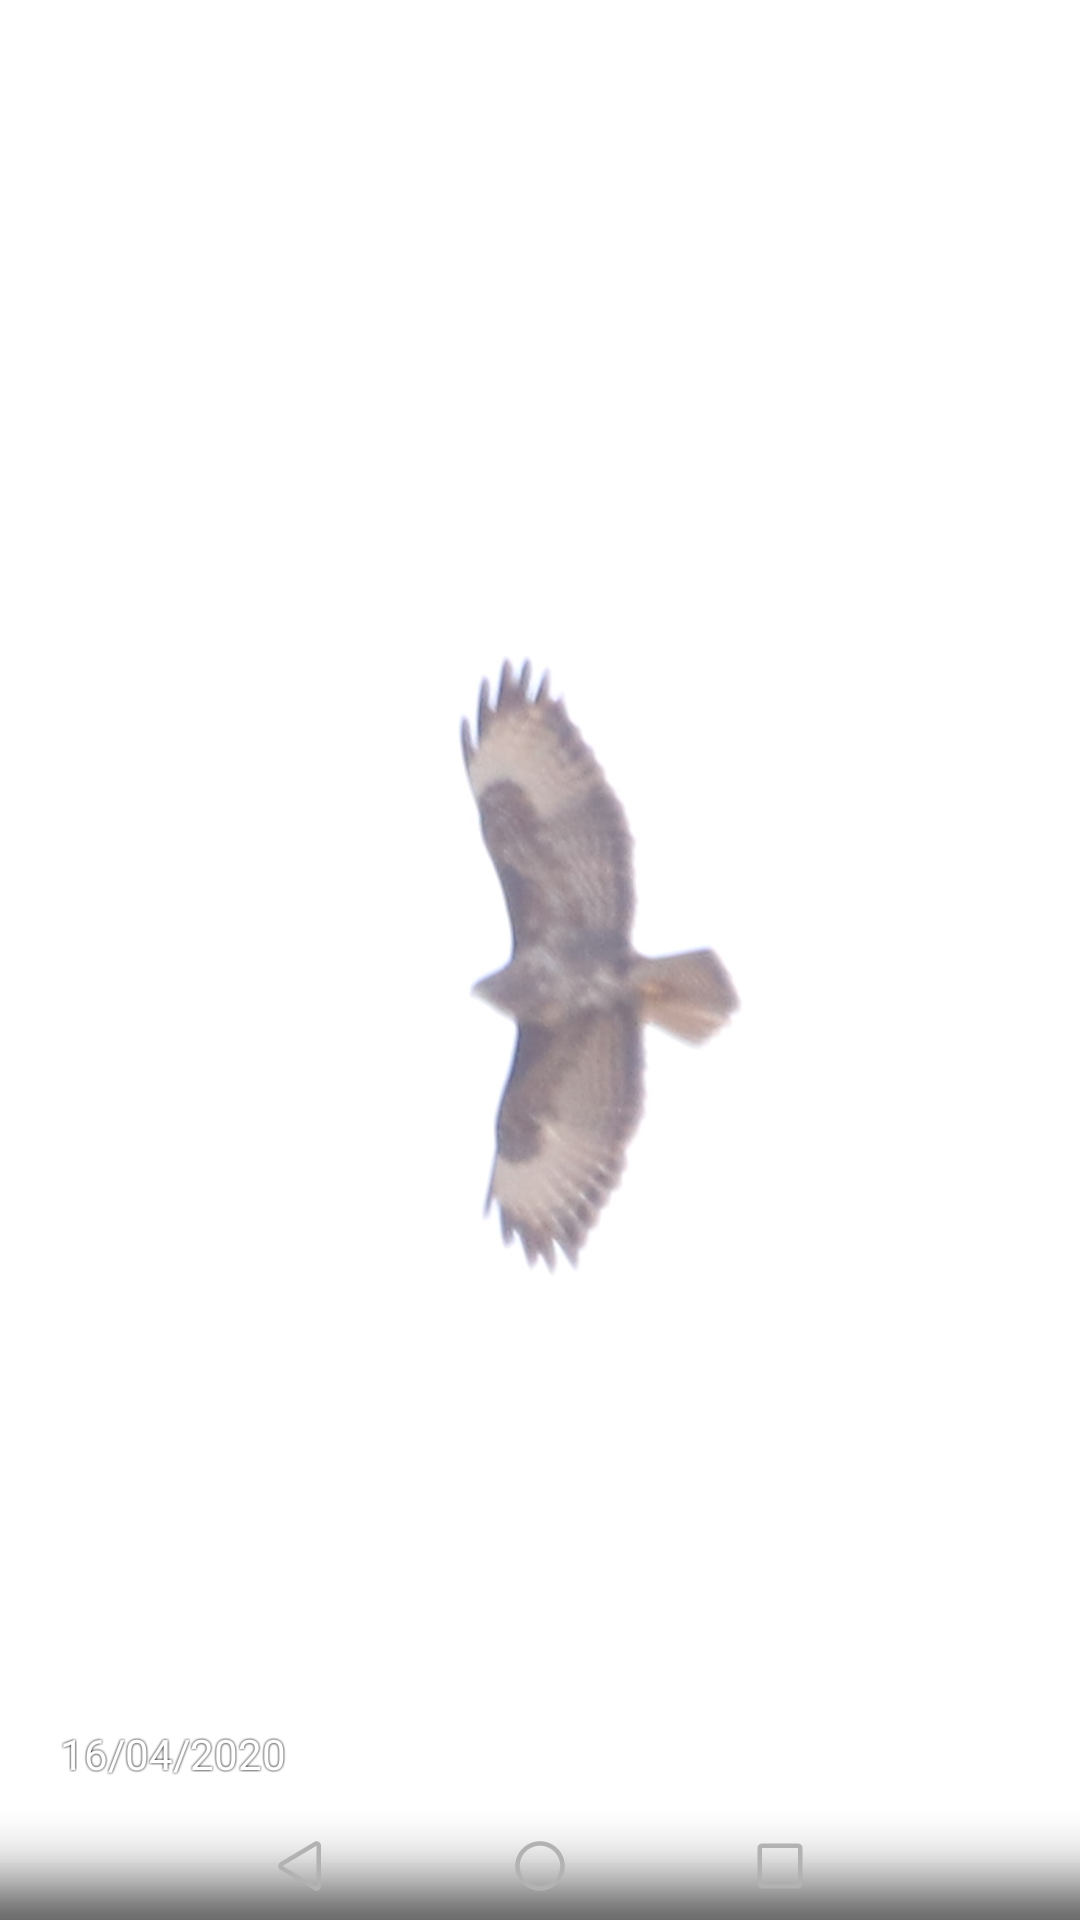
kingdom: Animalia
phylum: Chordata
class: Aves
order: Accipitriformes
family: Accipitridae
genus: Buteo
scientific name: Buteo buteo
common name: Common buzzard
